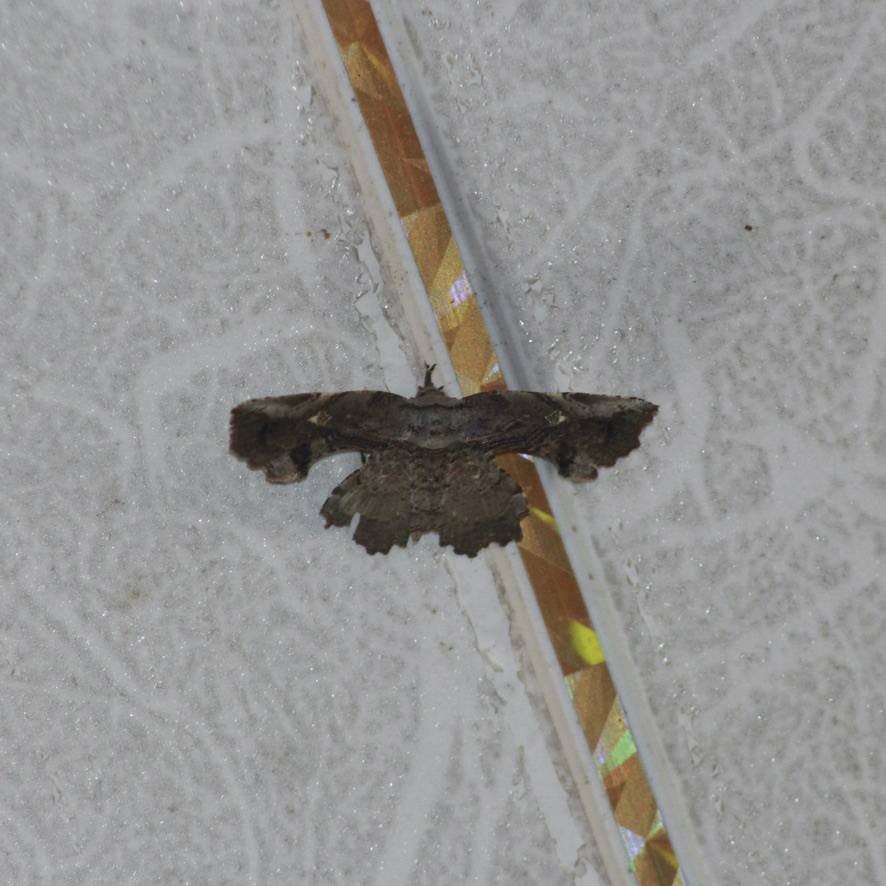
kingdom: Animalia
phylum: Arthropoda
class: Insecta
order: Lepidoptera
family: Erebidae
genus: Oroscopa
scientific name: Oroscopa concha
